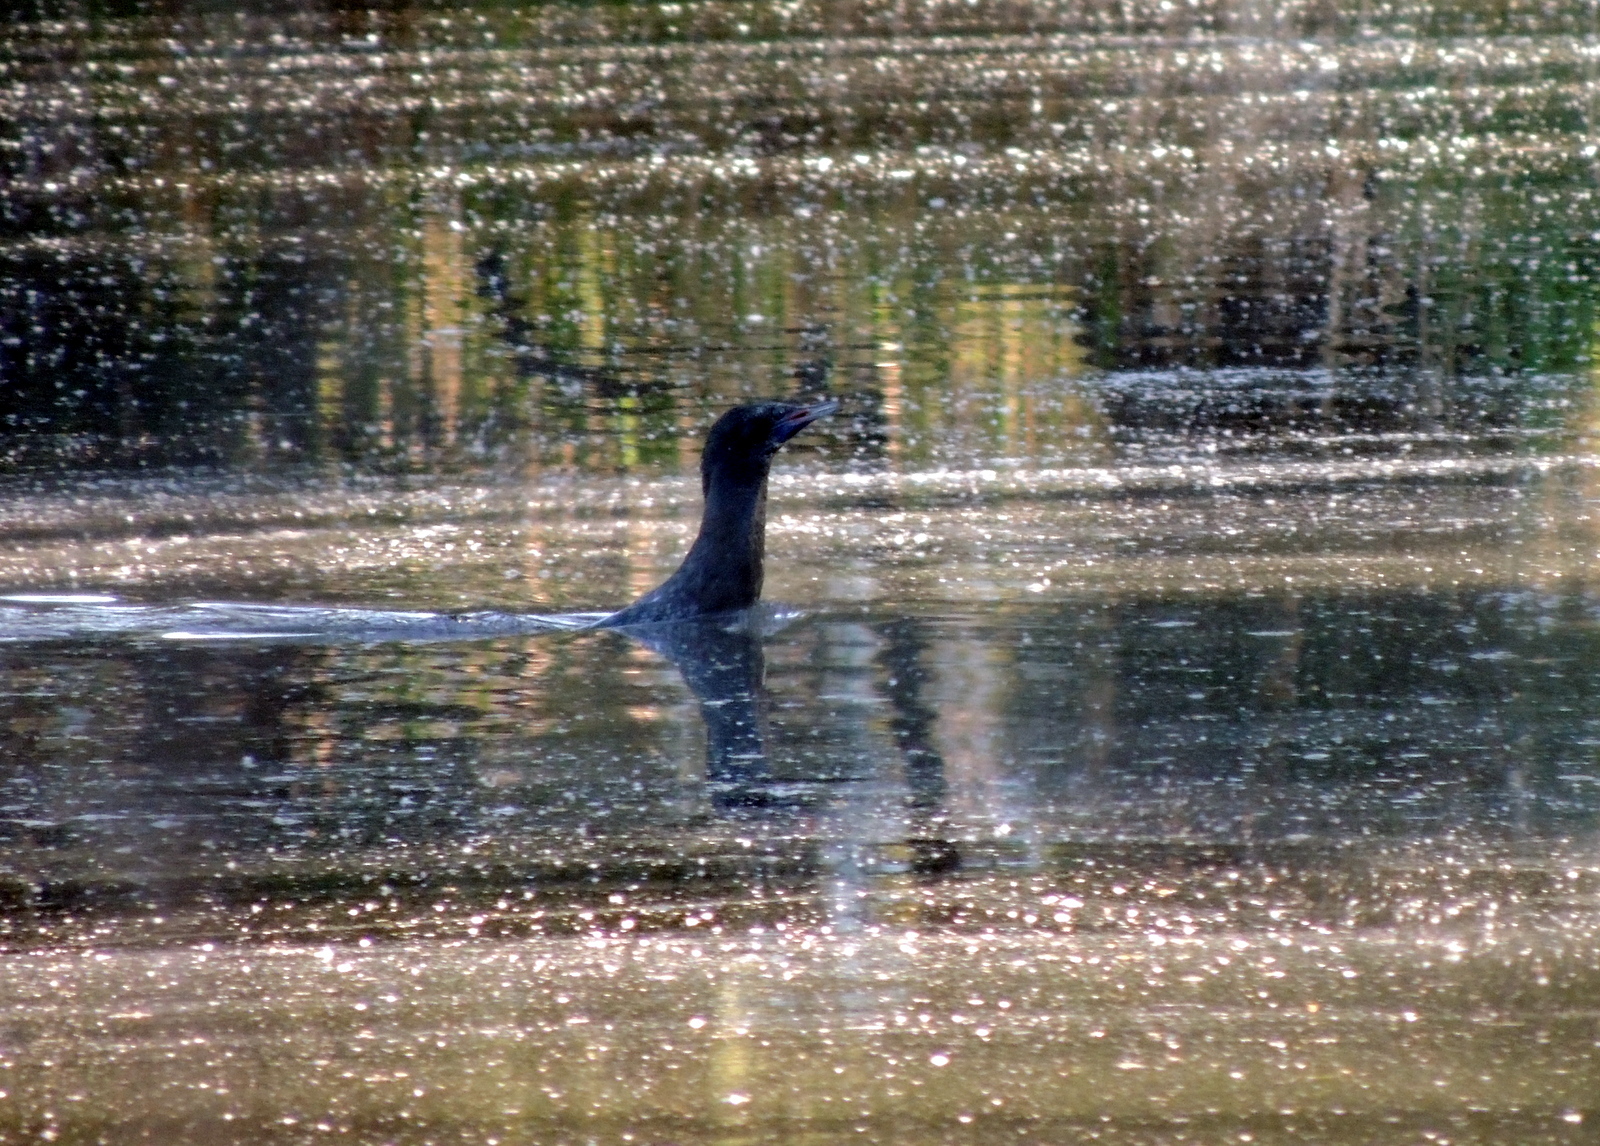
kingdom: Animalia
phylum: Chordata
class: Aves
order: Suliformes
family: Phalacrocoracidae
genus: Phalacrocorax
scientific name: Phalacrocorax sulcirostris
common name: Little black cormorant
